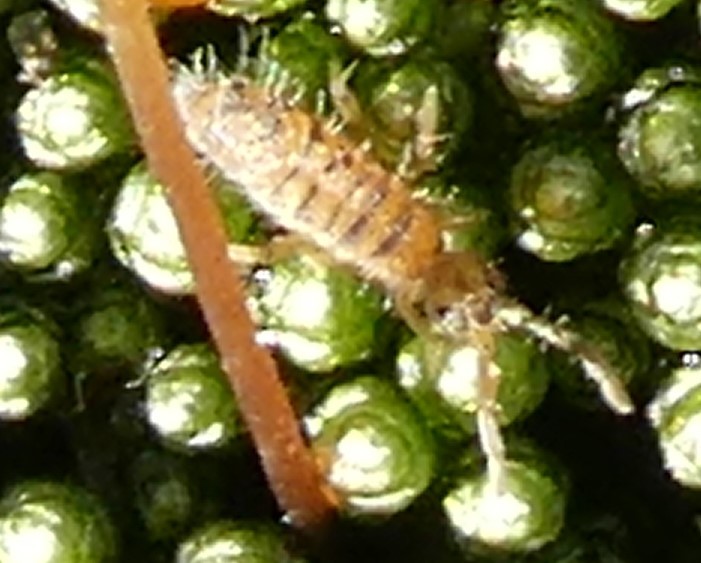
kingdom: Animalia
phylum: Arthropoda
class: Collembola
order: Entomobryomorpha
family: Entomobryidae
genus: Entomobrya
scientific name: Entomobrya multifasciata
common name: Springtail
